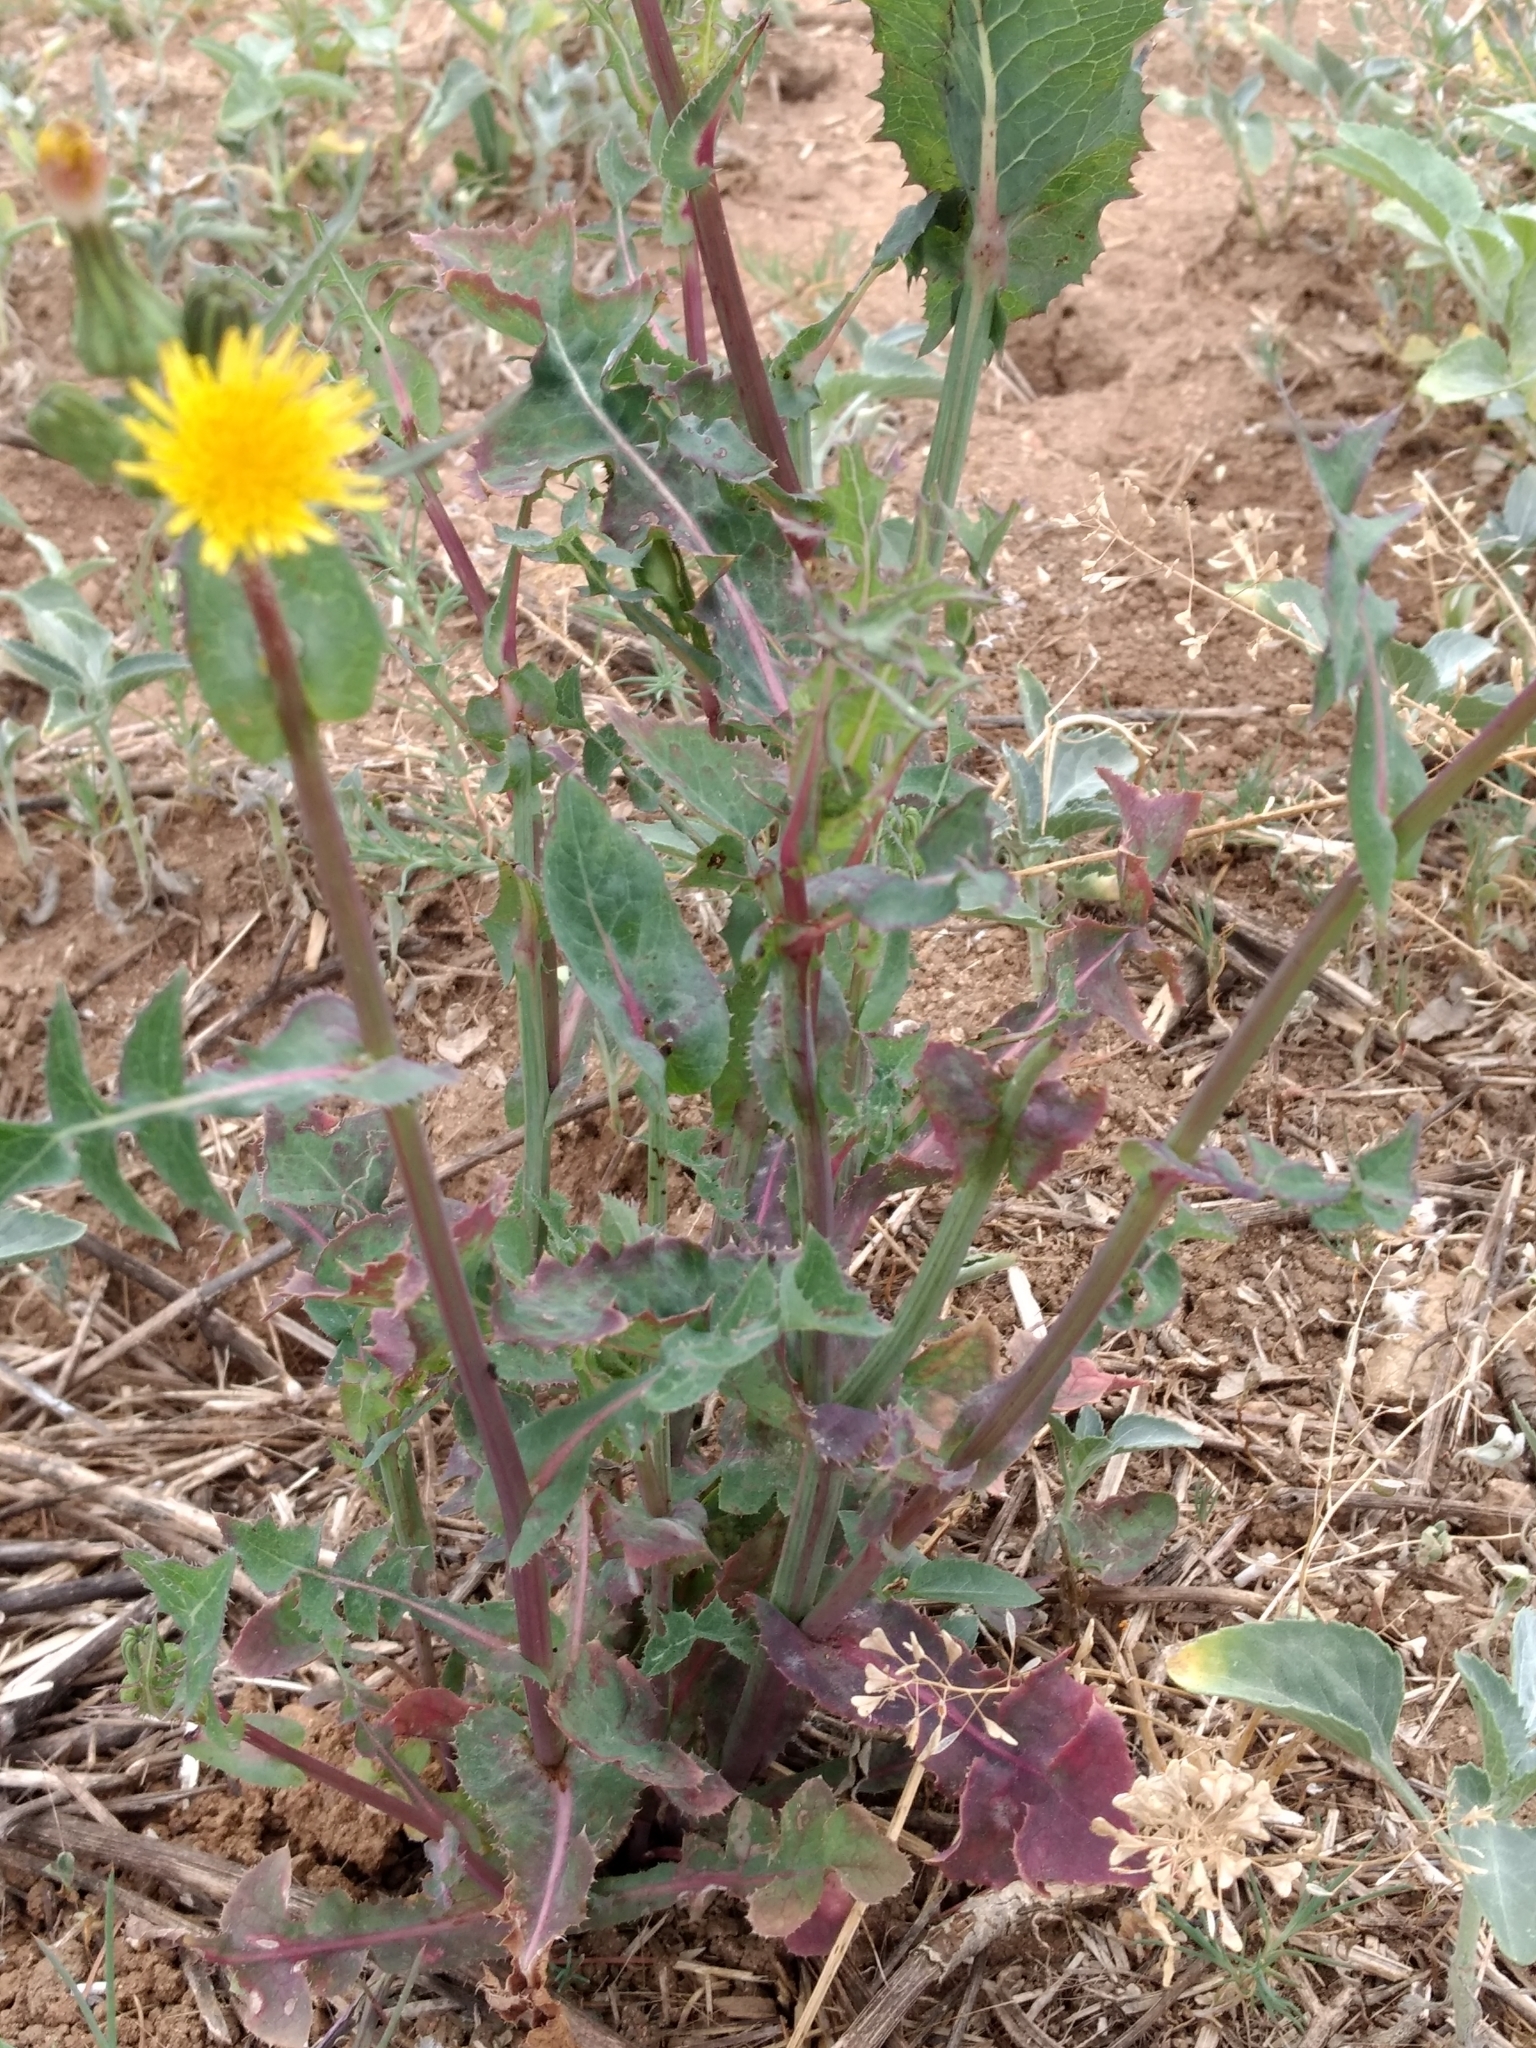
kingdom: Plantae
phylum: Tracheophyta
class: Magnoliopsida
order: Asterales
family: Asteraceae
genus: Sonchus
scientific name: Sonchus oleraceus
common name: Common sowthistle
